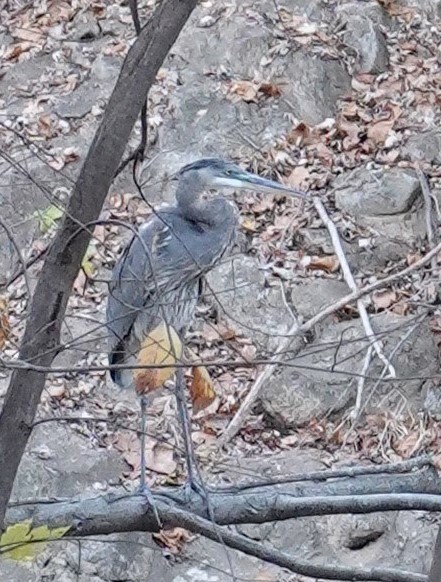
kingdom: Animalia
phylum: Chordata
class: Aves
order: Pelecaniformes
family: Ardeidae
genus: Ardea
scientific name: Ardea herodias
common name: Great blue heron
